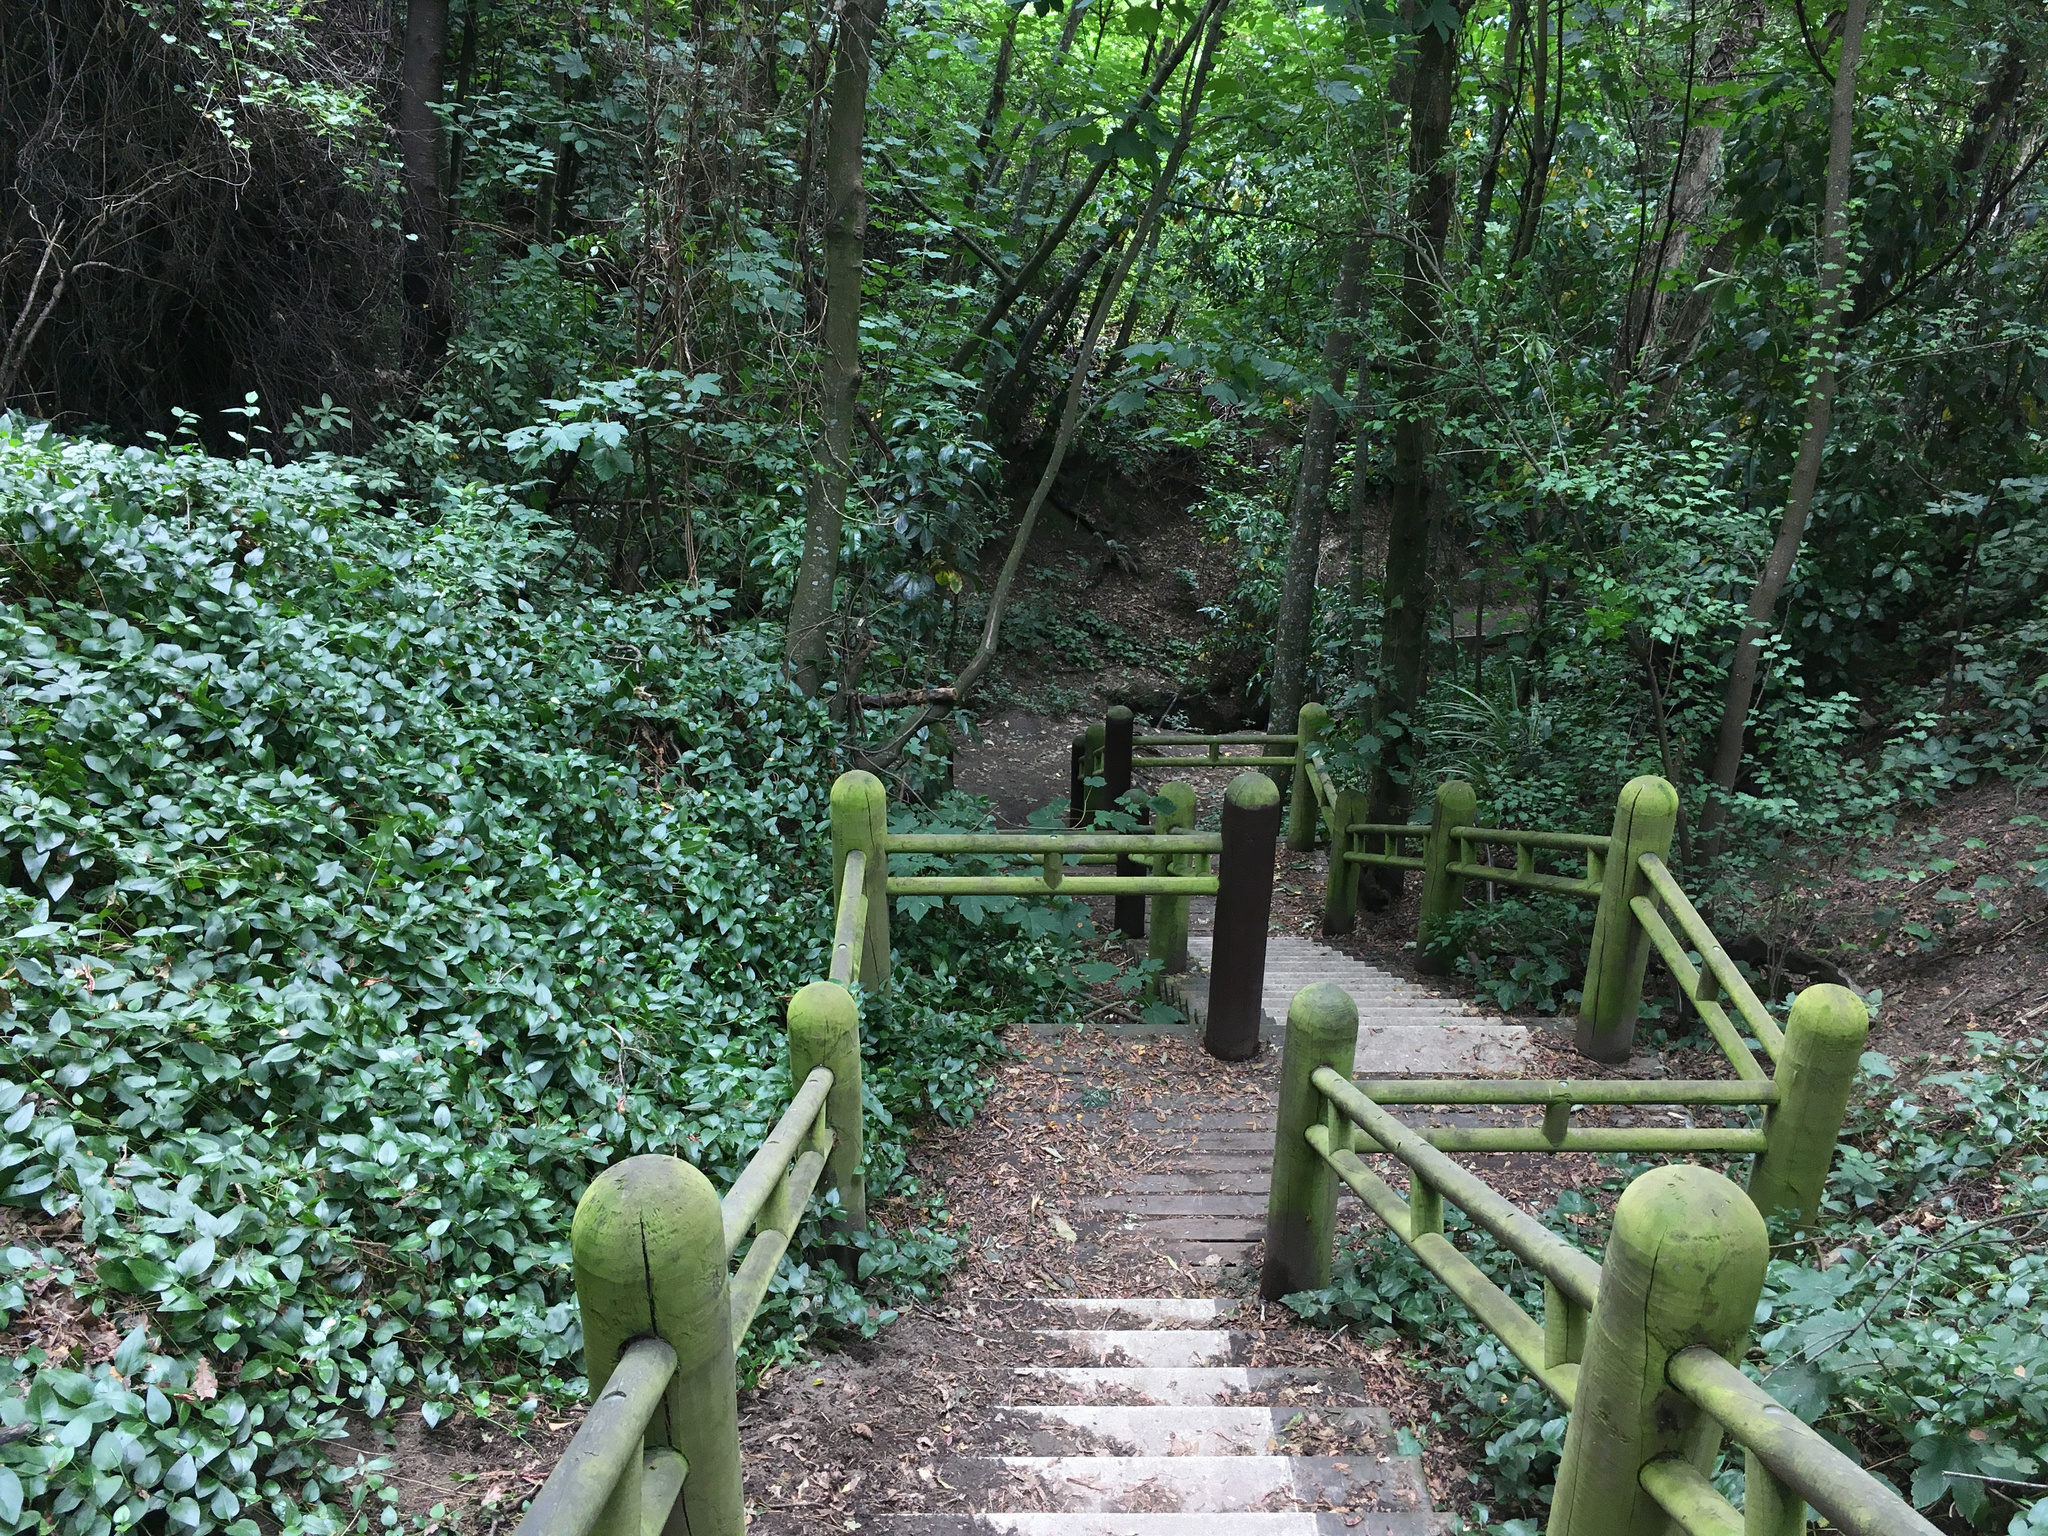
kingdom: Plantae
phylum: Tracheophyta
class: Magnoliopsida
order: Gentianales
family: Apocynaceae
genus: Vinca
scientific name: Vinca major
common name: Greater periwinkle
